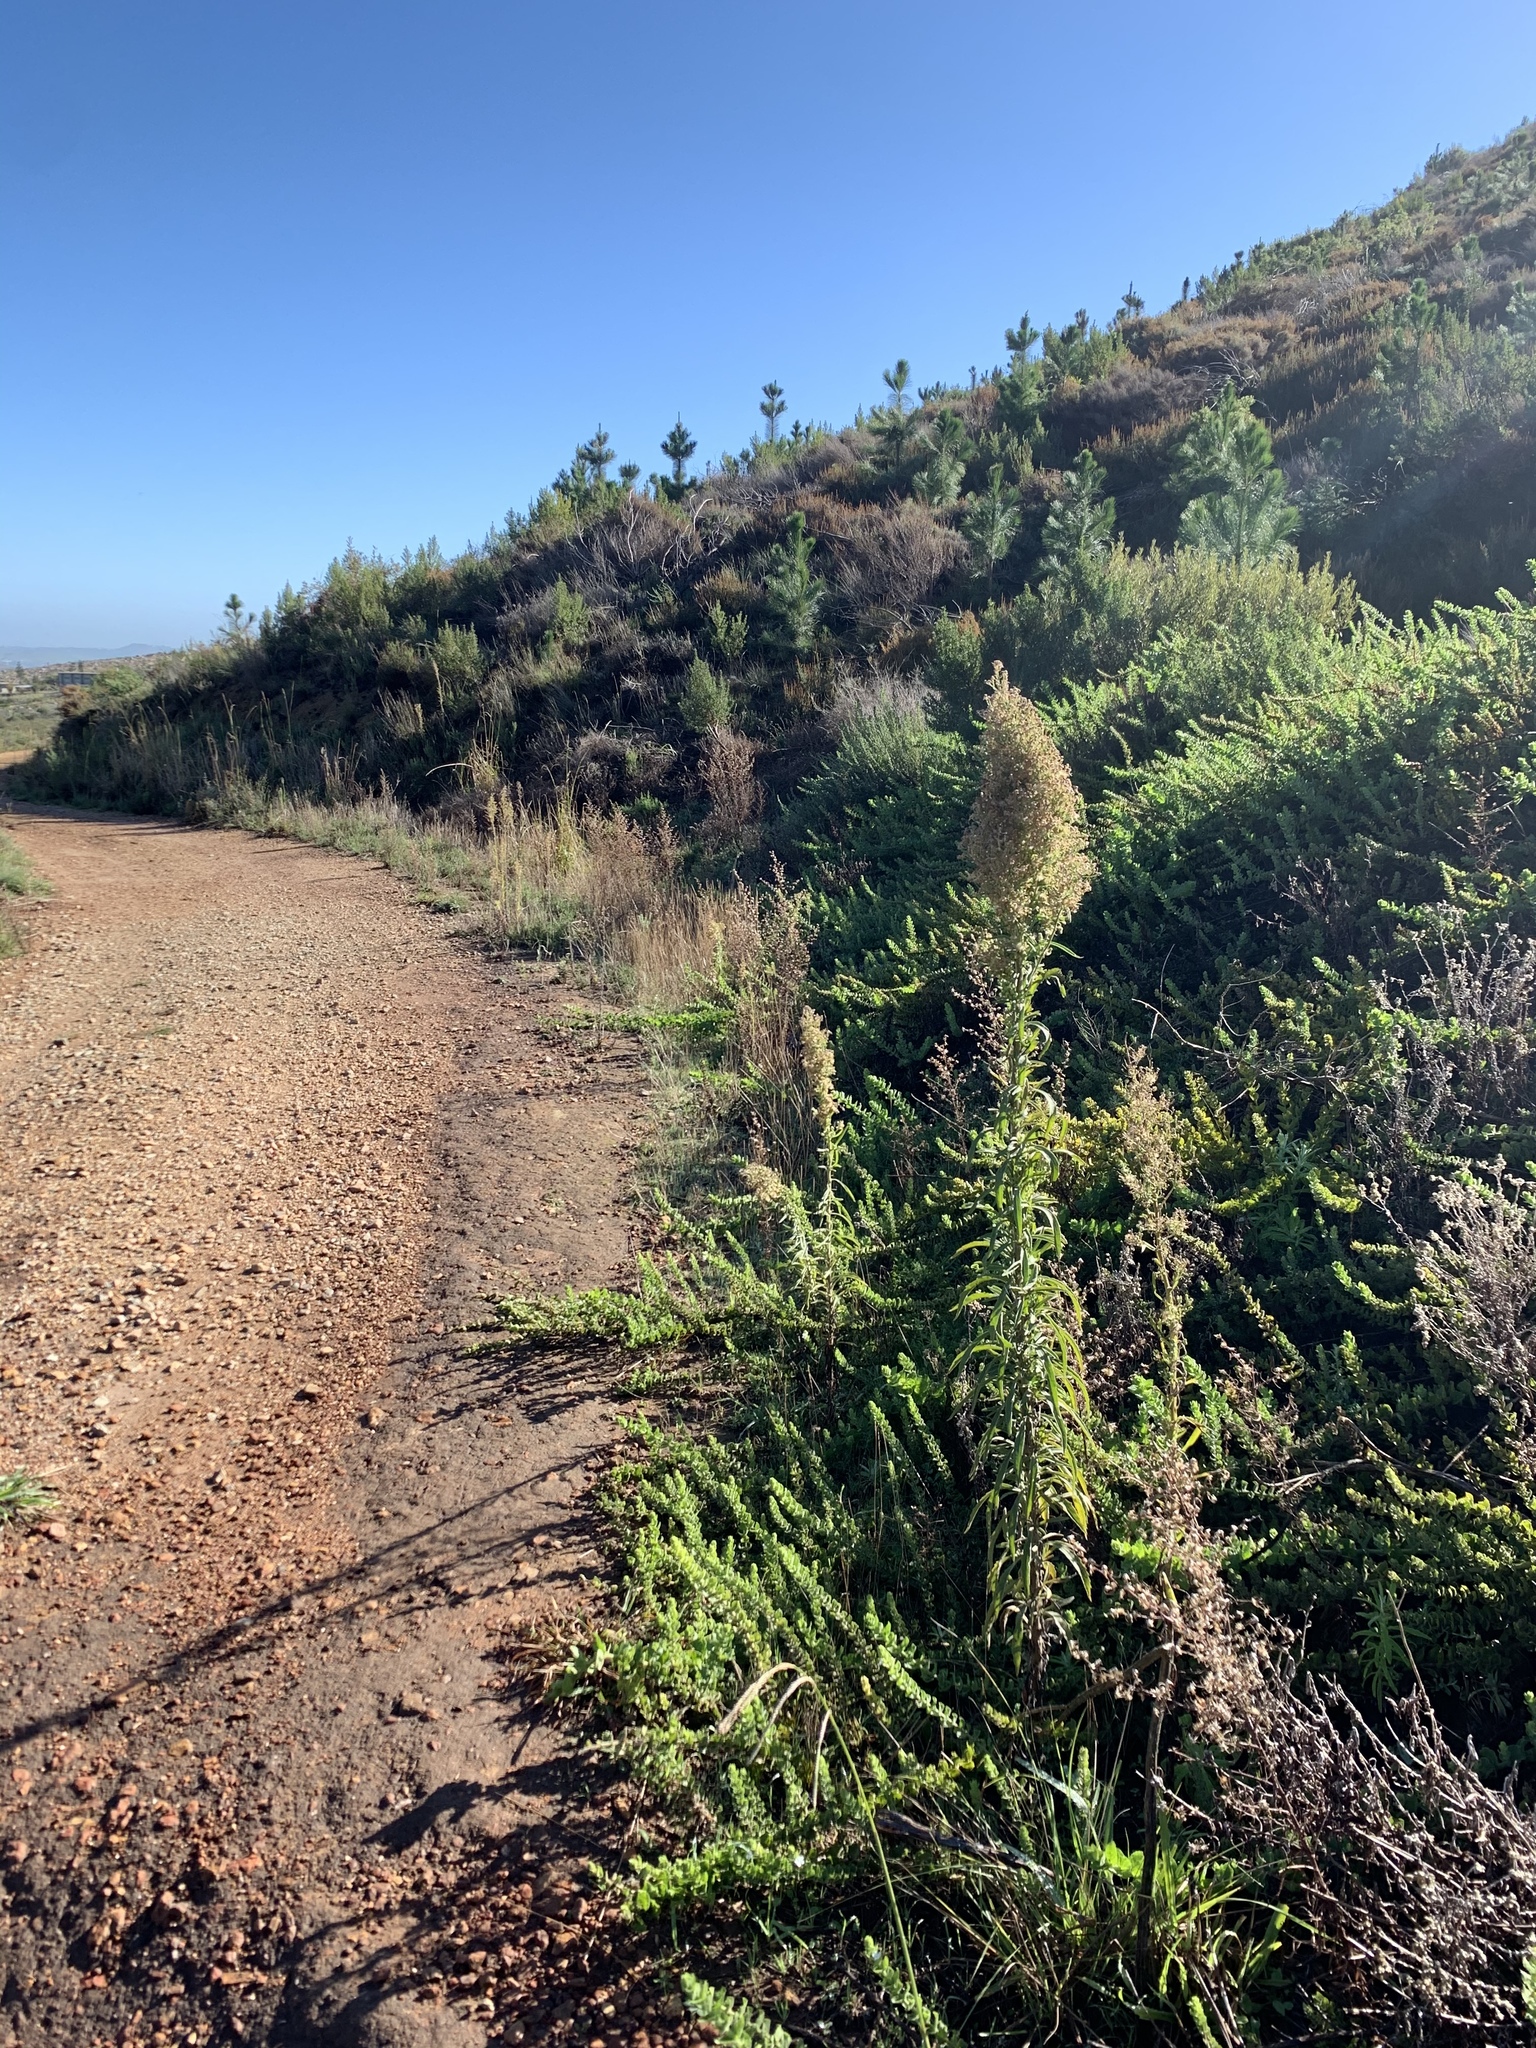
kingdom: Plantae
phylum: Tracheophyta
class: Magnoliopsida
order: Asterales
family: Asteraceae
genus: Erigeron
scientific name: Erigeron sumatrensis
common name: Daisy
